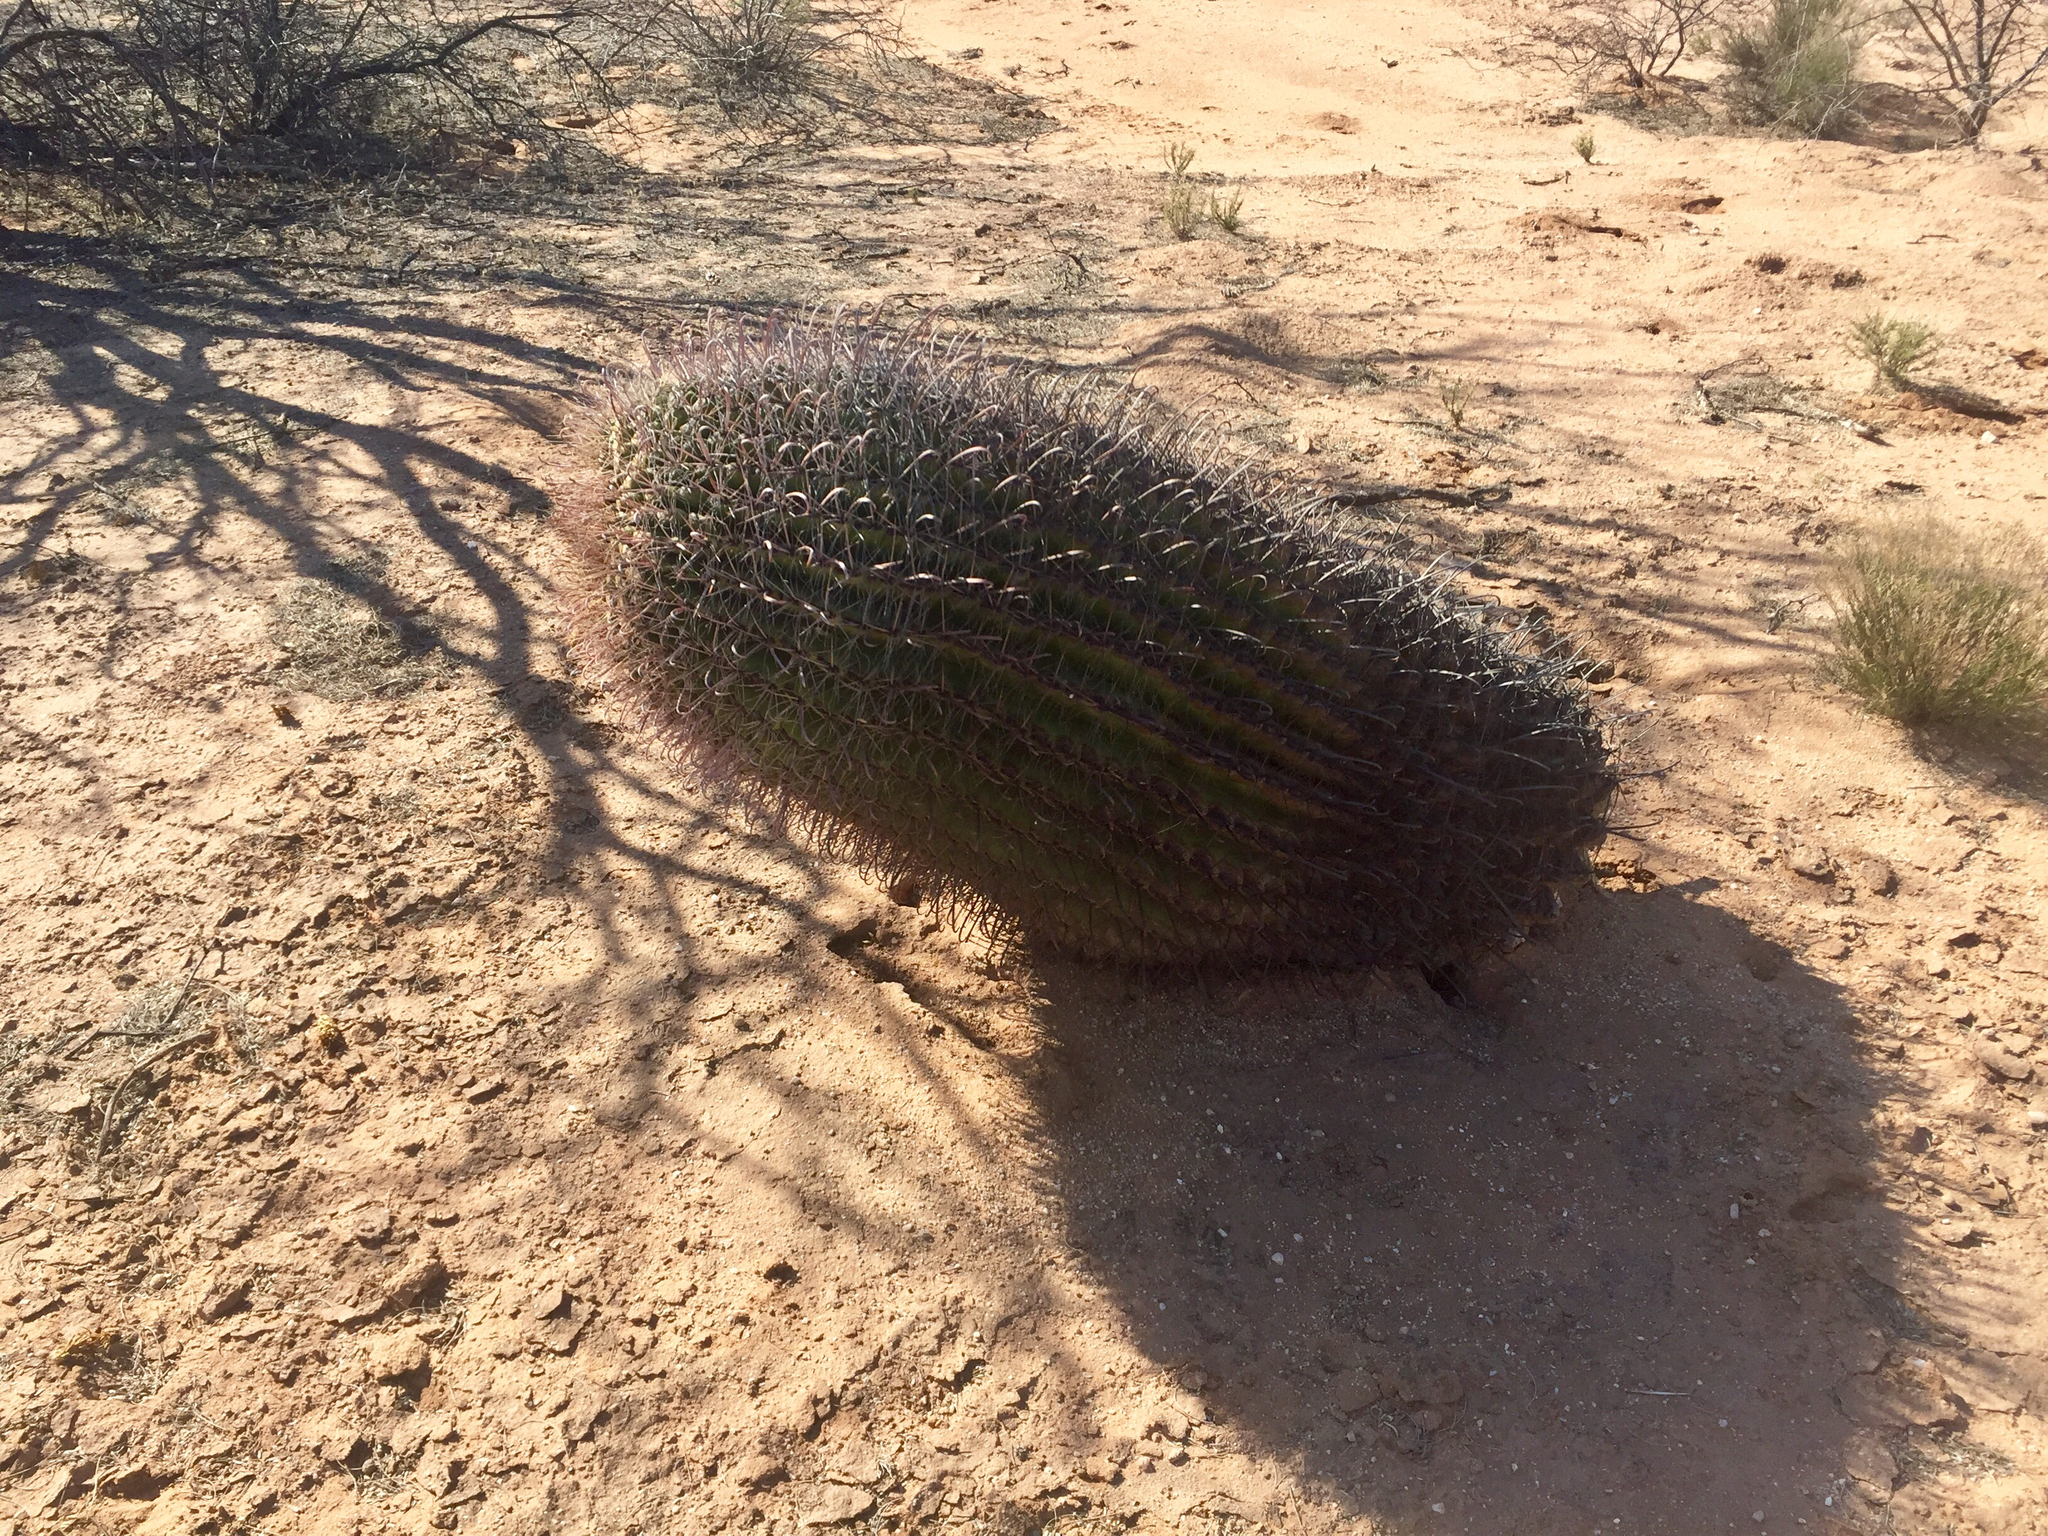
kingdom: Plantae
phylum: Tracheophyta
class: Magnoliopsida
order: Caryophyllales
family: Cactaceae
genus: Ferocactus
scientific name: Ferocactus wislizeni
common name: Candy barrel cactus
